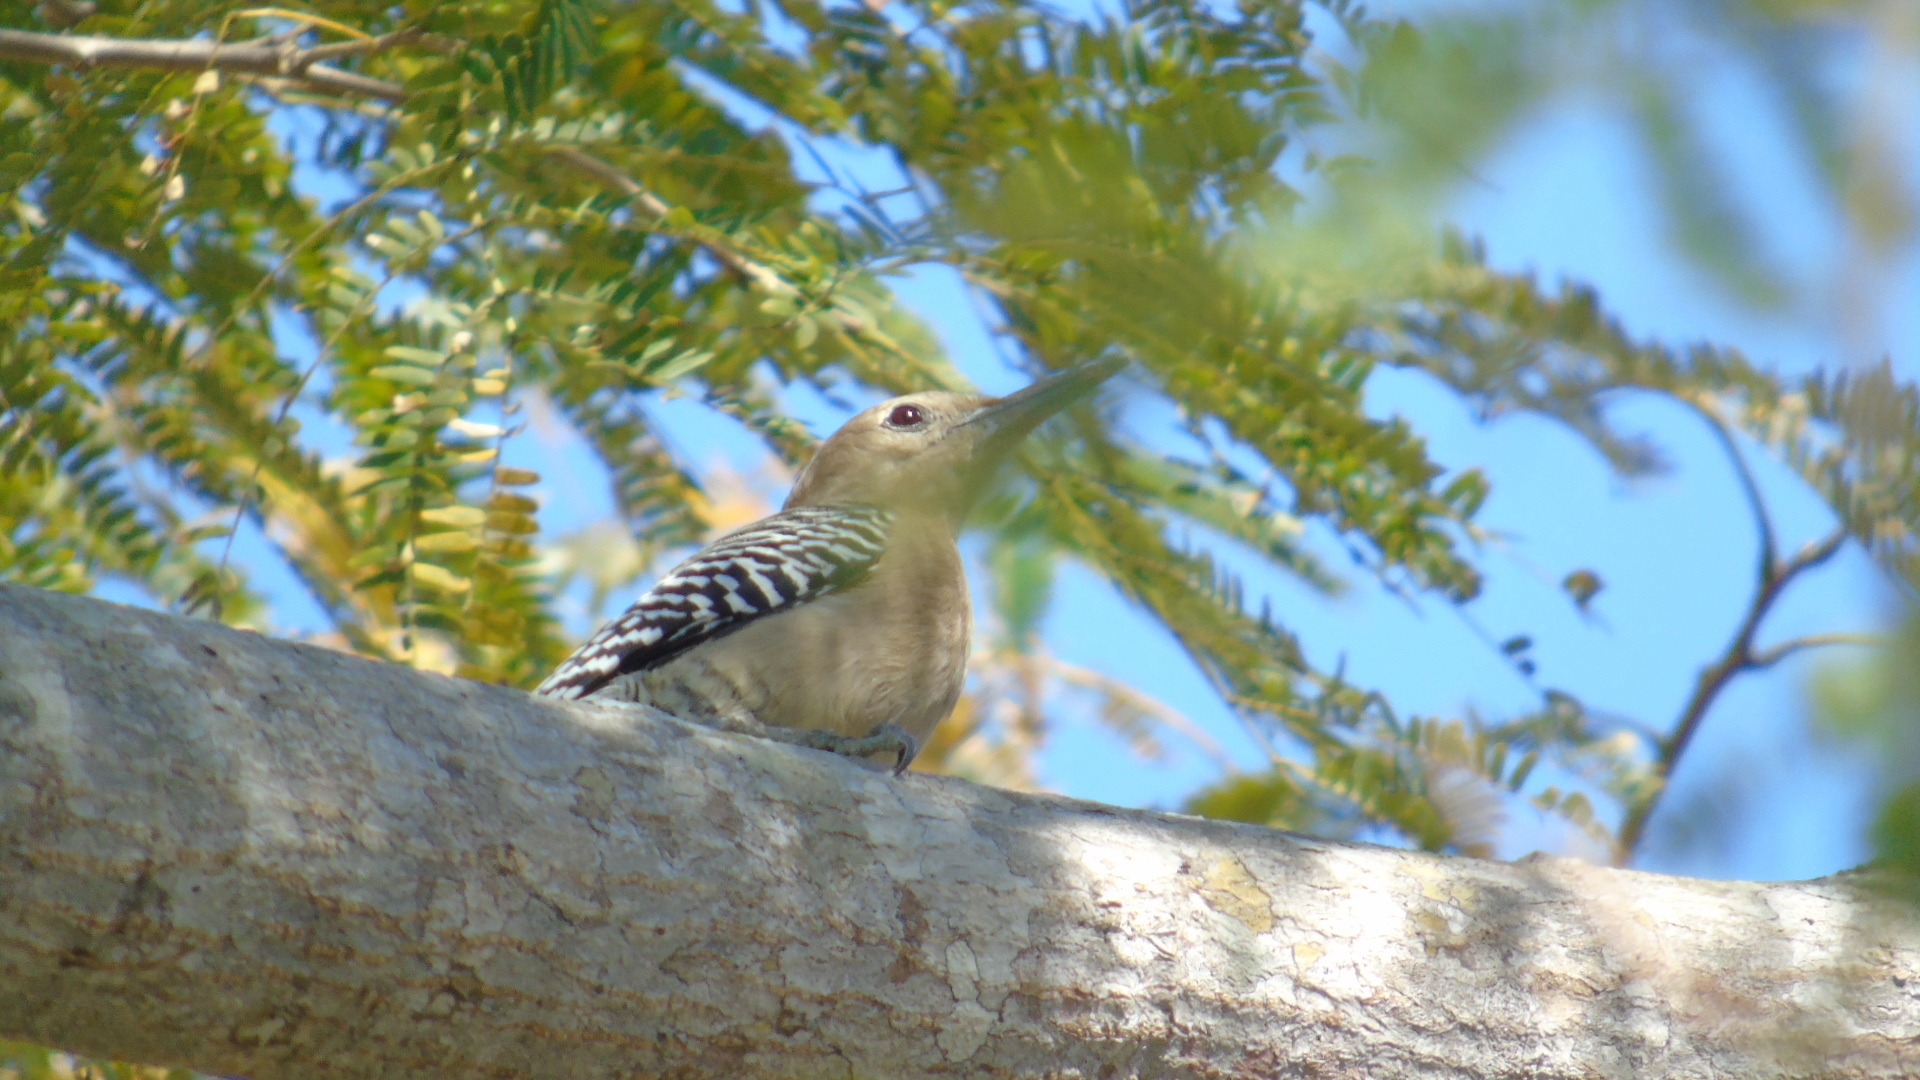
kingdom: Animalia
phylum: Chordata
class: Aves
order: Piciformes
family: Picidae
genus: Melanerpes
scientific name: Melanerpes uropygialis
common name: Gila woodpecker
